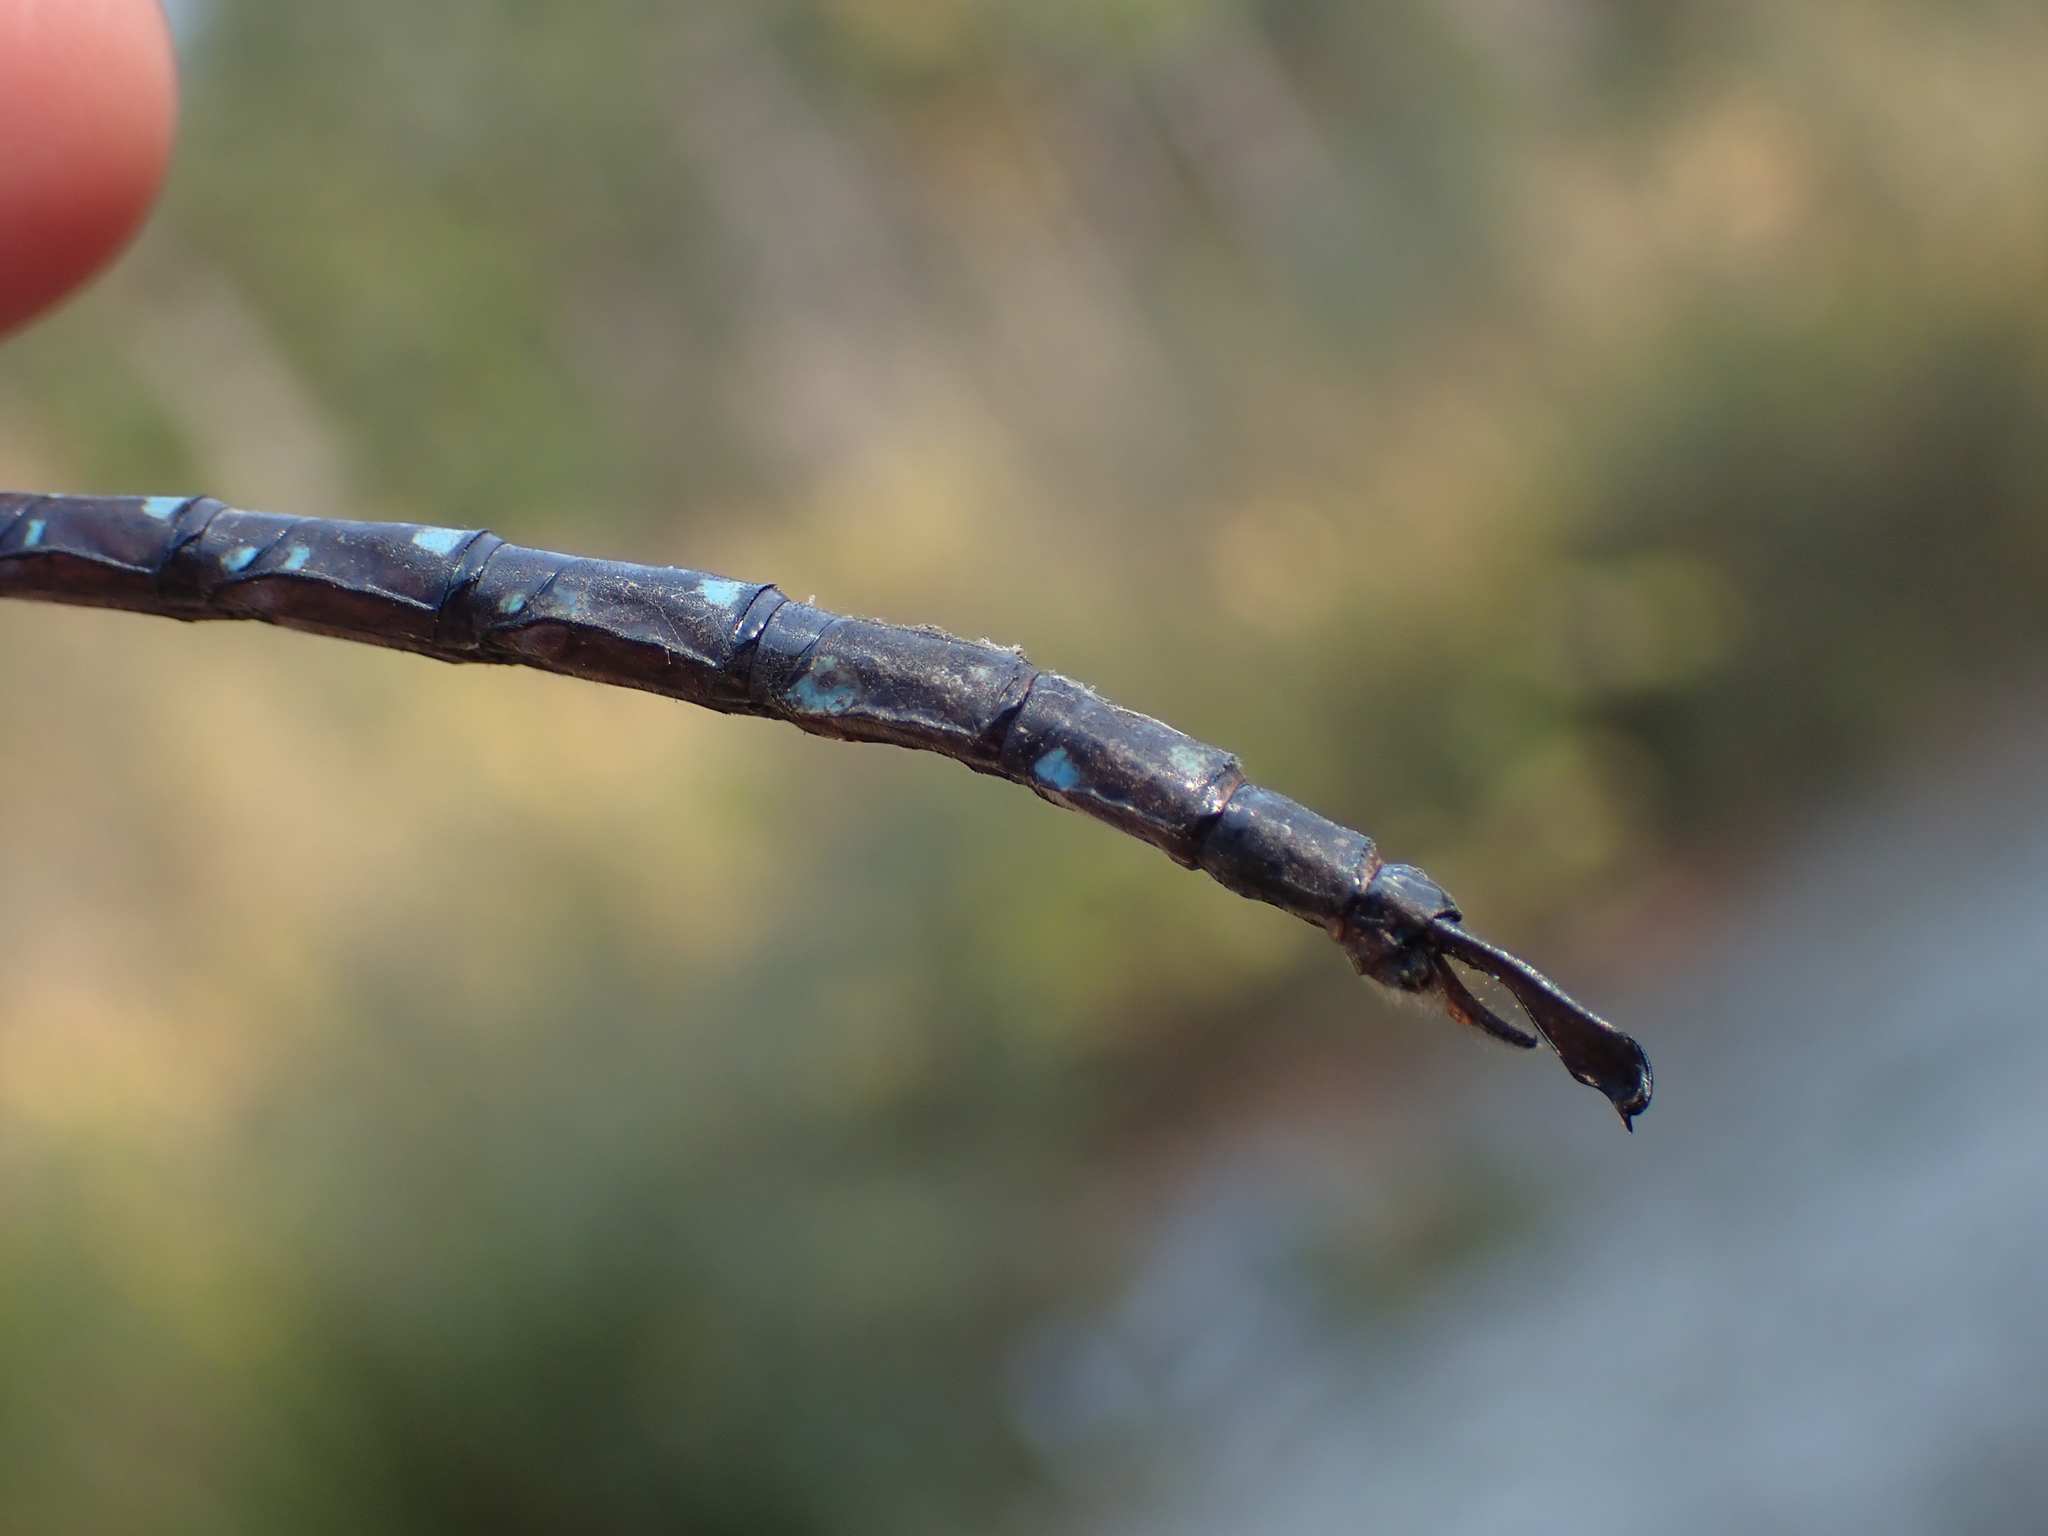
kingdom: Animalia
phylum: Arthropoda
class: Insecta
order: Odonata
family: Aeshnidae
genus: Aeshna
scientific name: Aeshna umbrosa
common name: Shadow darner
